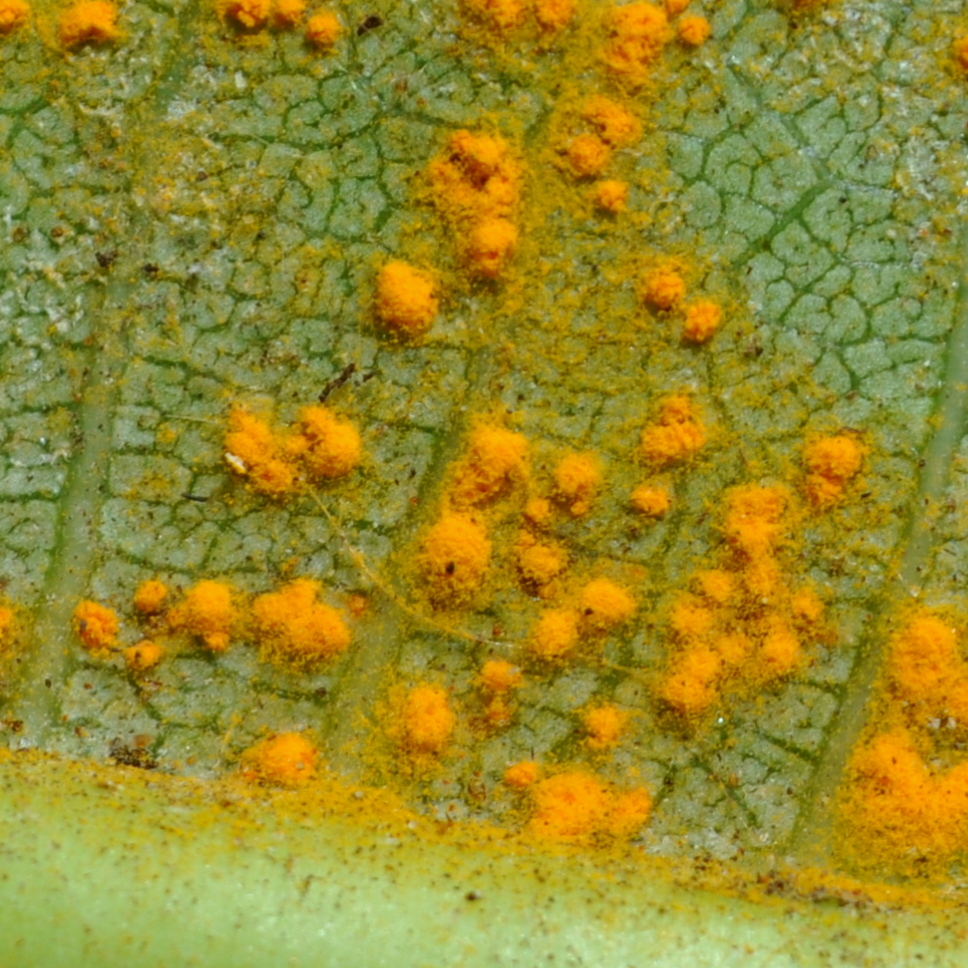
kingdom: Fungi
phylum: Basidiomycota
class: Pucciniomycetes
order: Pucciniales
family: Coleosporiaceae
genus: Coleosporium
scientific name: Coleosporium plumeriae
